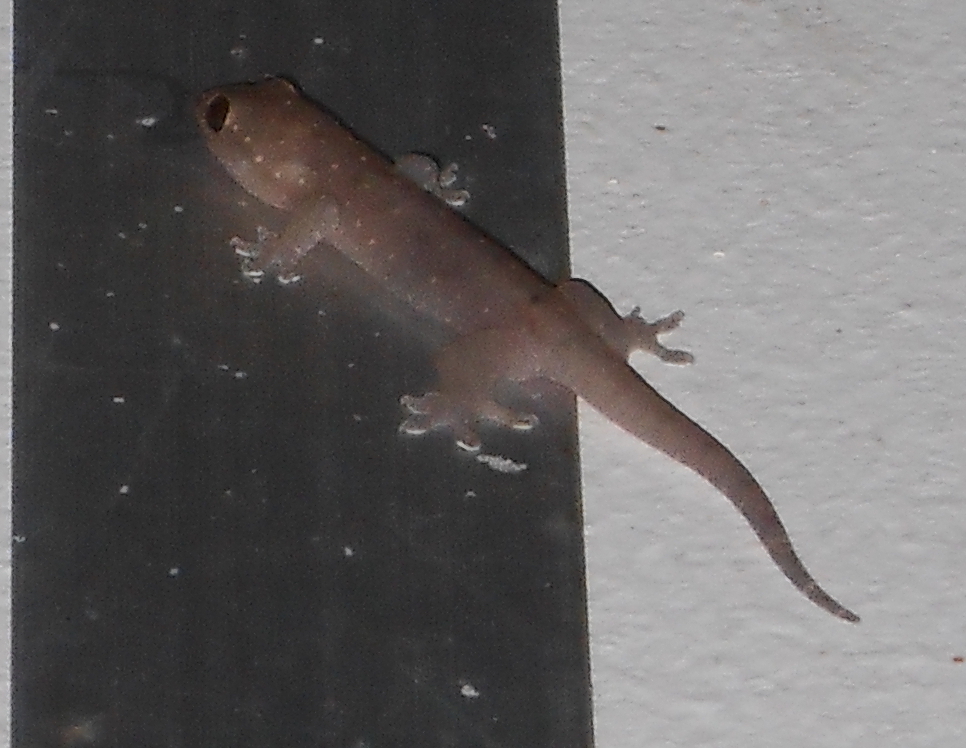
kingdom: Animalia
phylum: Chordata
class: Squamata
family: Gekkonidae
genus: Gehyra
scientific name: Gehyra mutilata
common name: Stump-toed gecko
